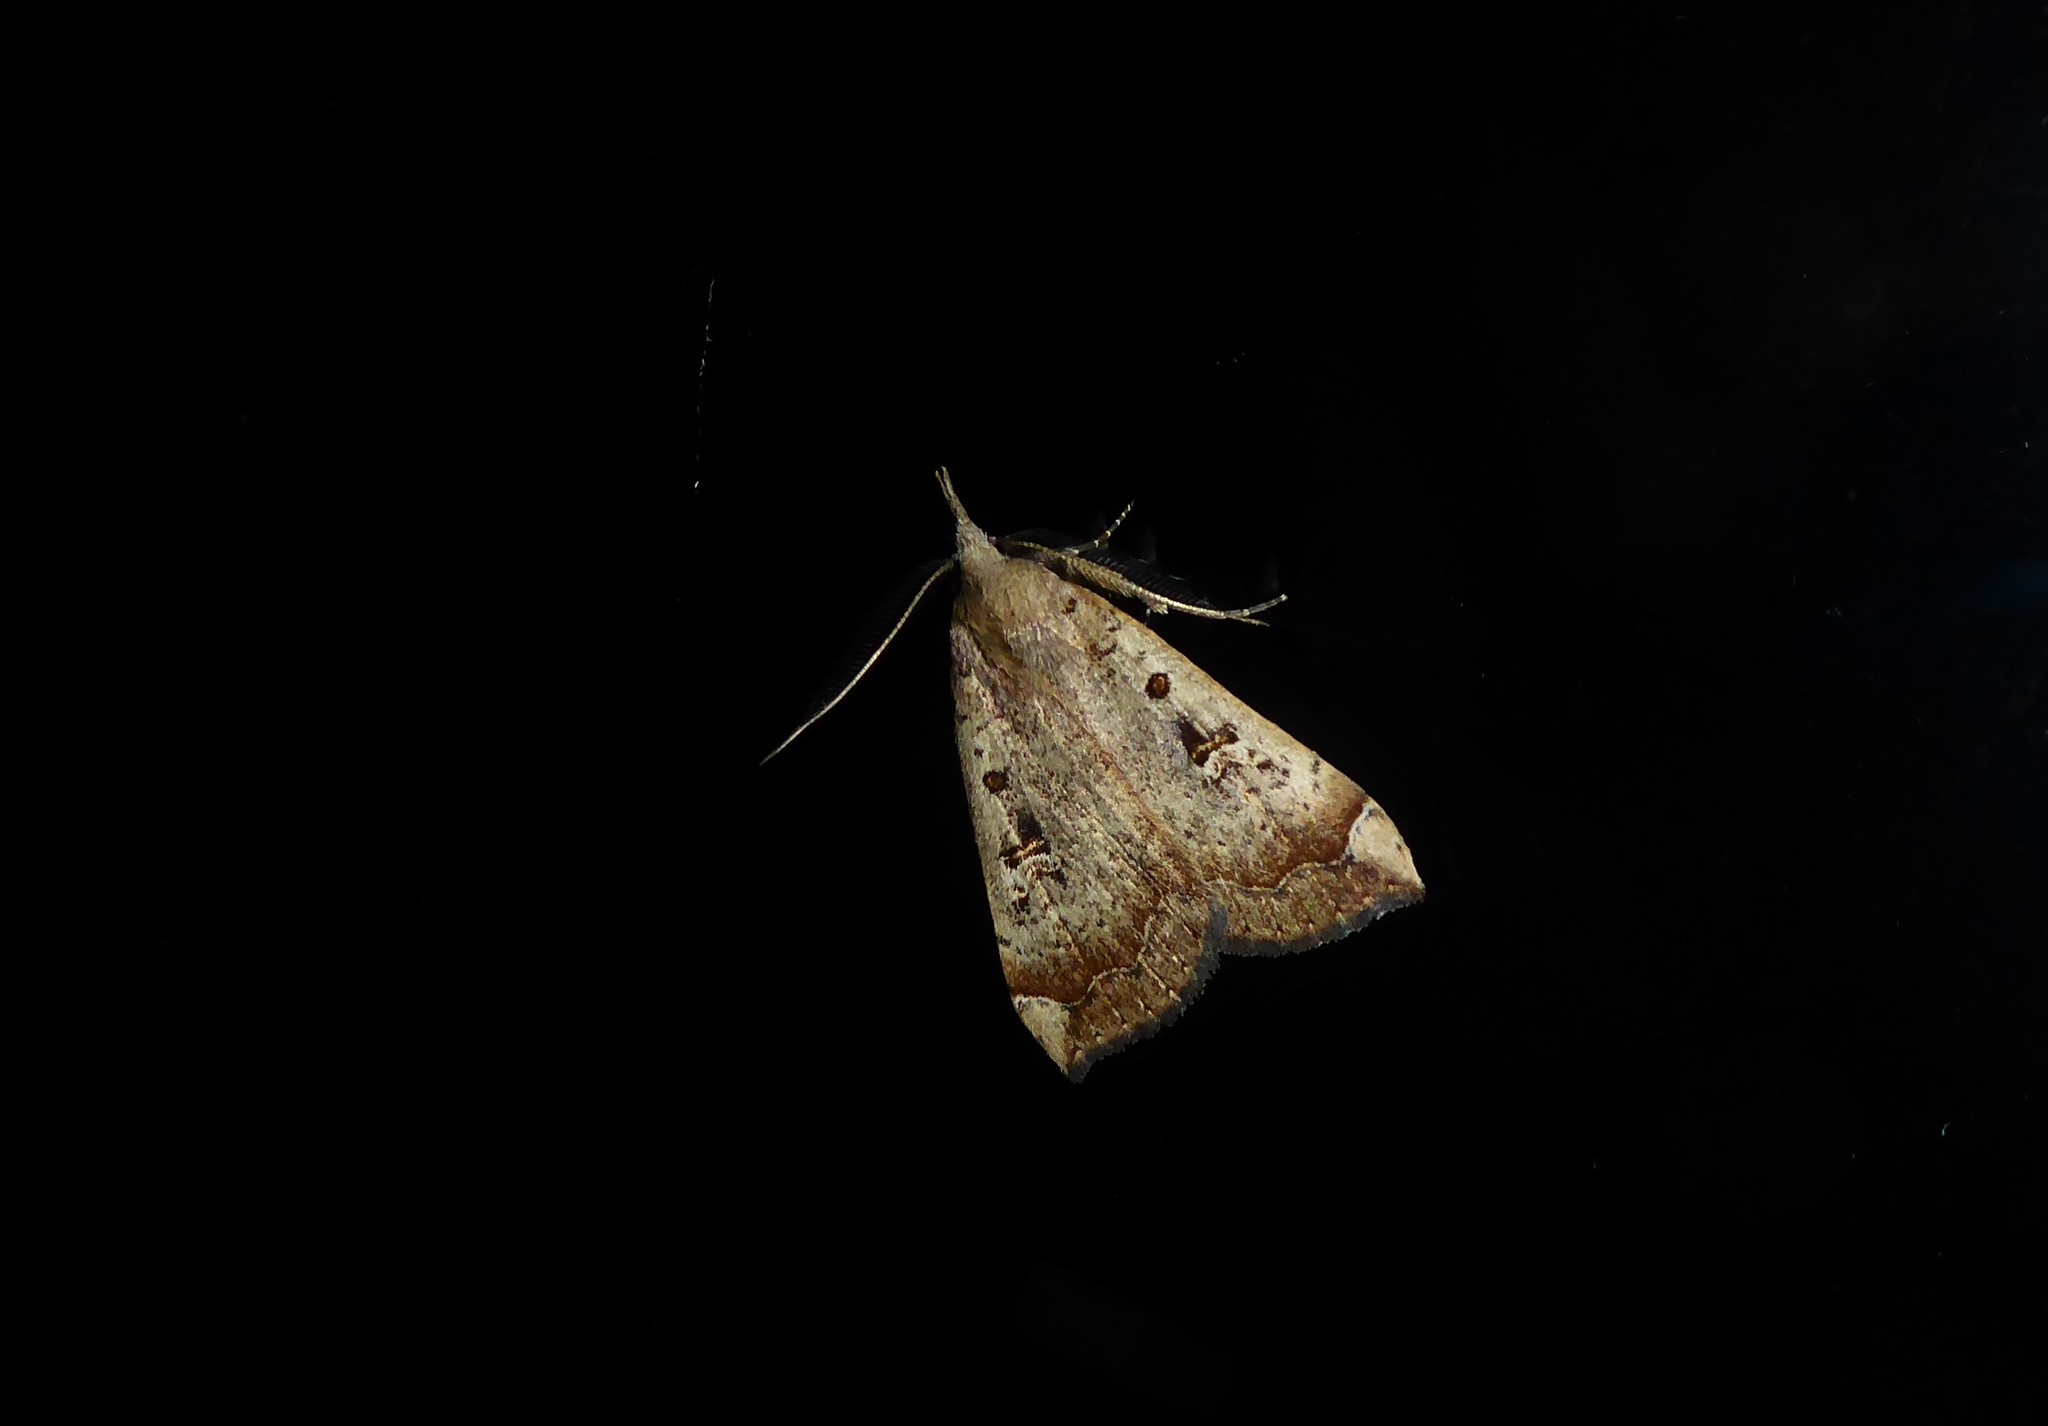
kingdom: Animalia
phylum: Arthropoda
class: Insecta
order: Lepidoptera
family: Erebidae
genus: Rhapsa
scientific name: Rhapsa scotosialis
